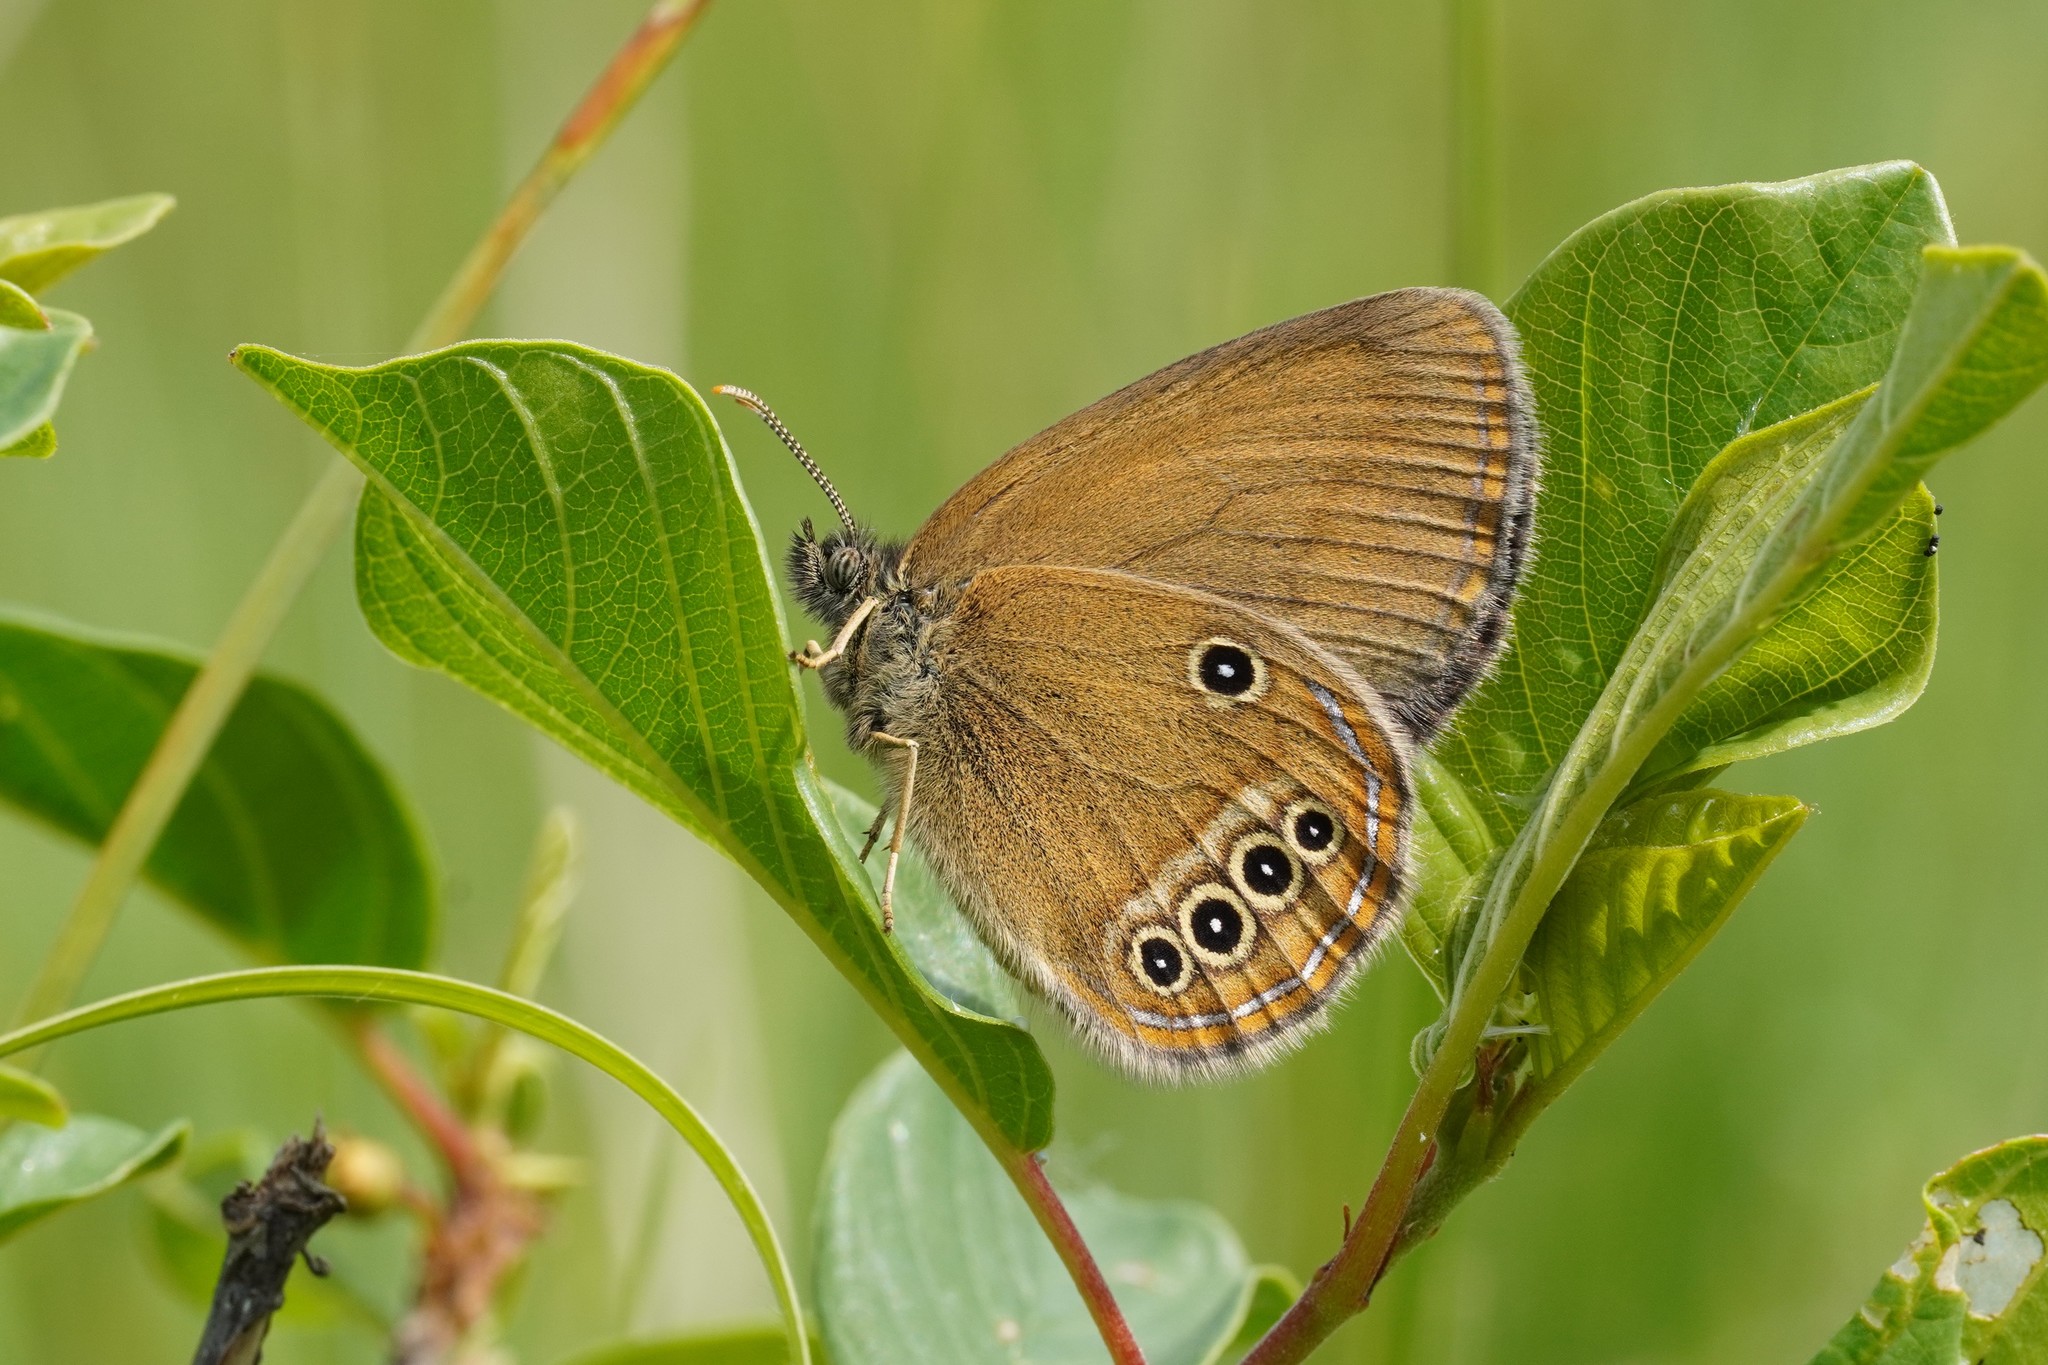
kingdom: Animalia
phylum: Arthropoda
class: Insecta
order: Lepidoptera
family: Nymphalidae
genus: Coenonympha
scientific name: Coenonympha oedippus
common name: False ringlet
